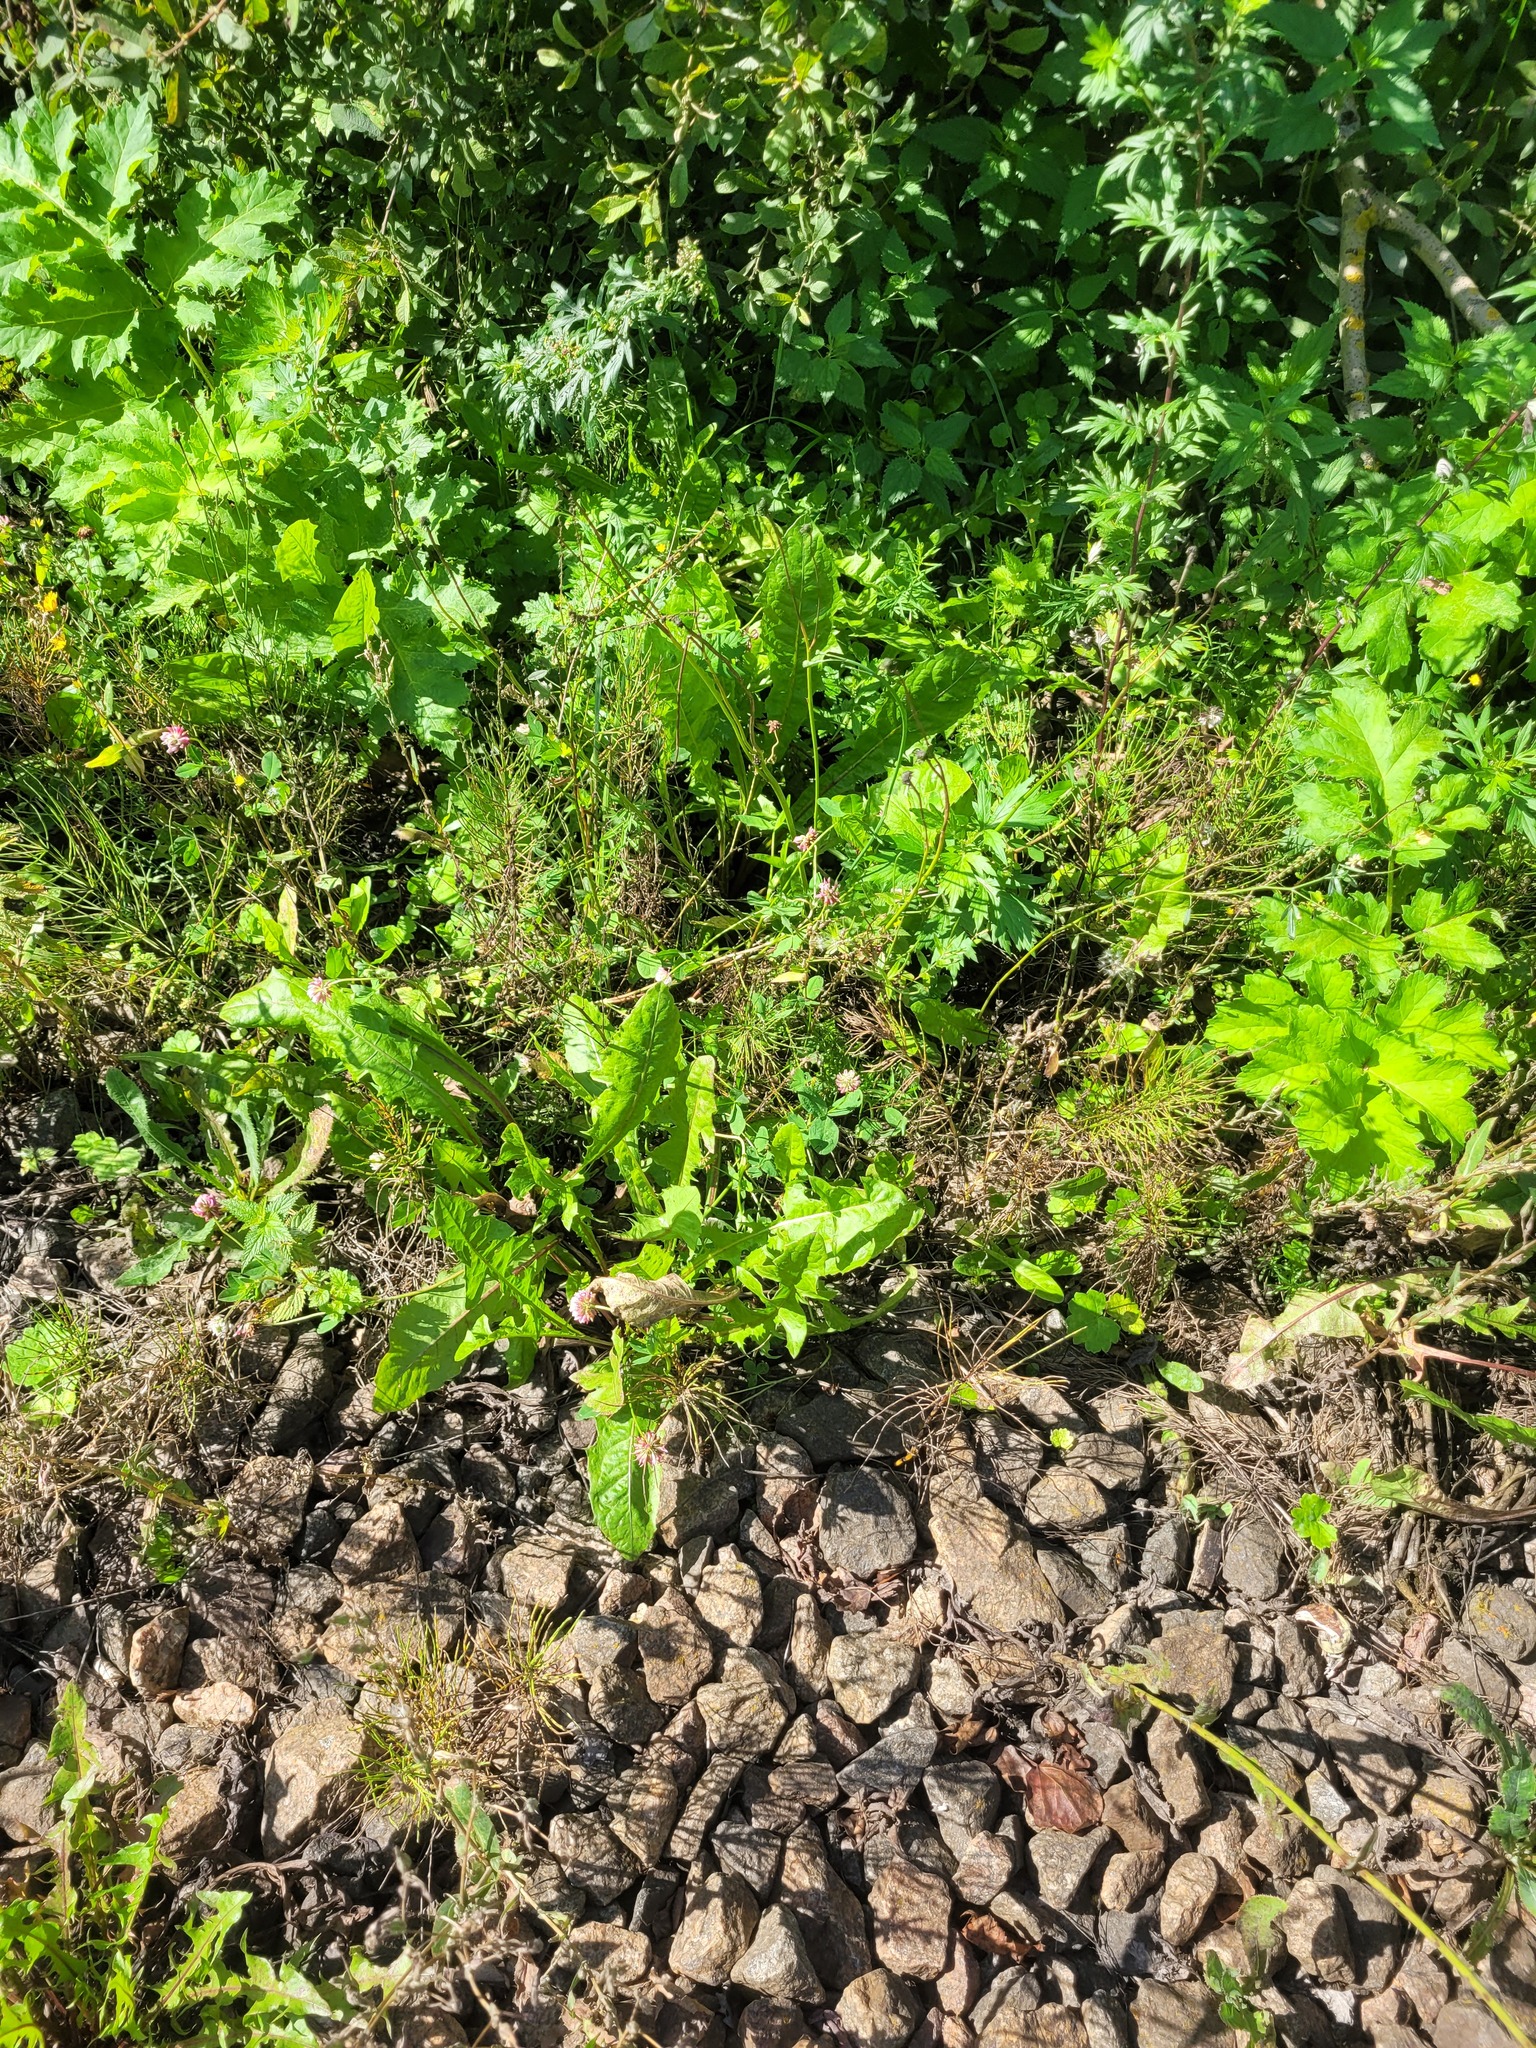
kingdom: Plantae
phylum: Tracheophyta
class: Magnoliopsida
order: Fabales
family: Fabaceae
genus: Trifolium
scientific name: Trifolium hybridum
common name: Alsike clover
